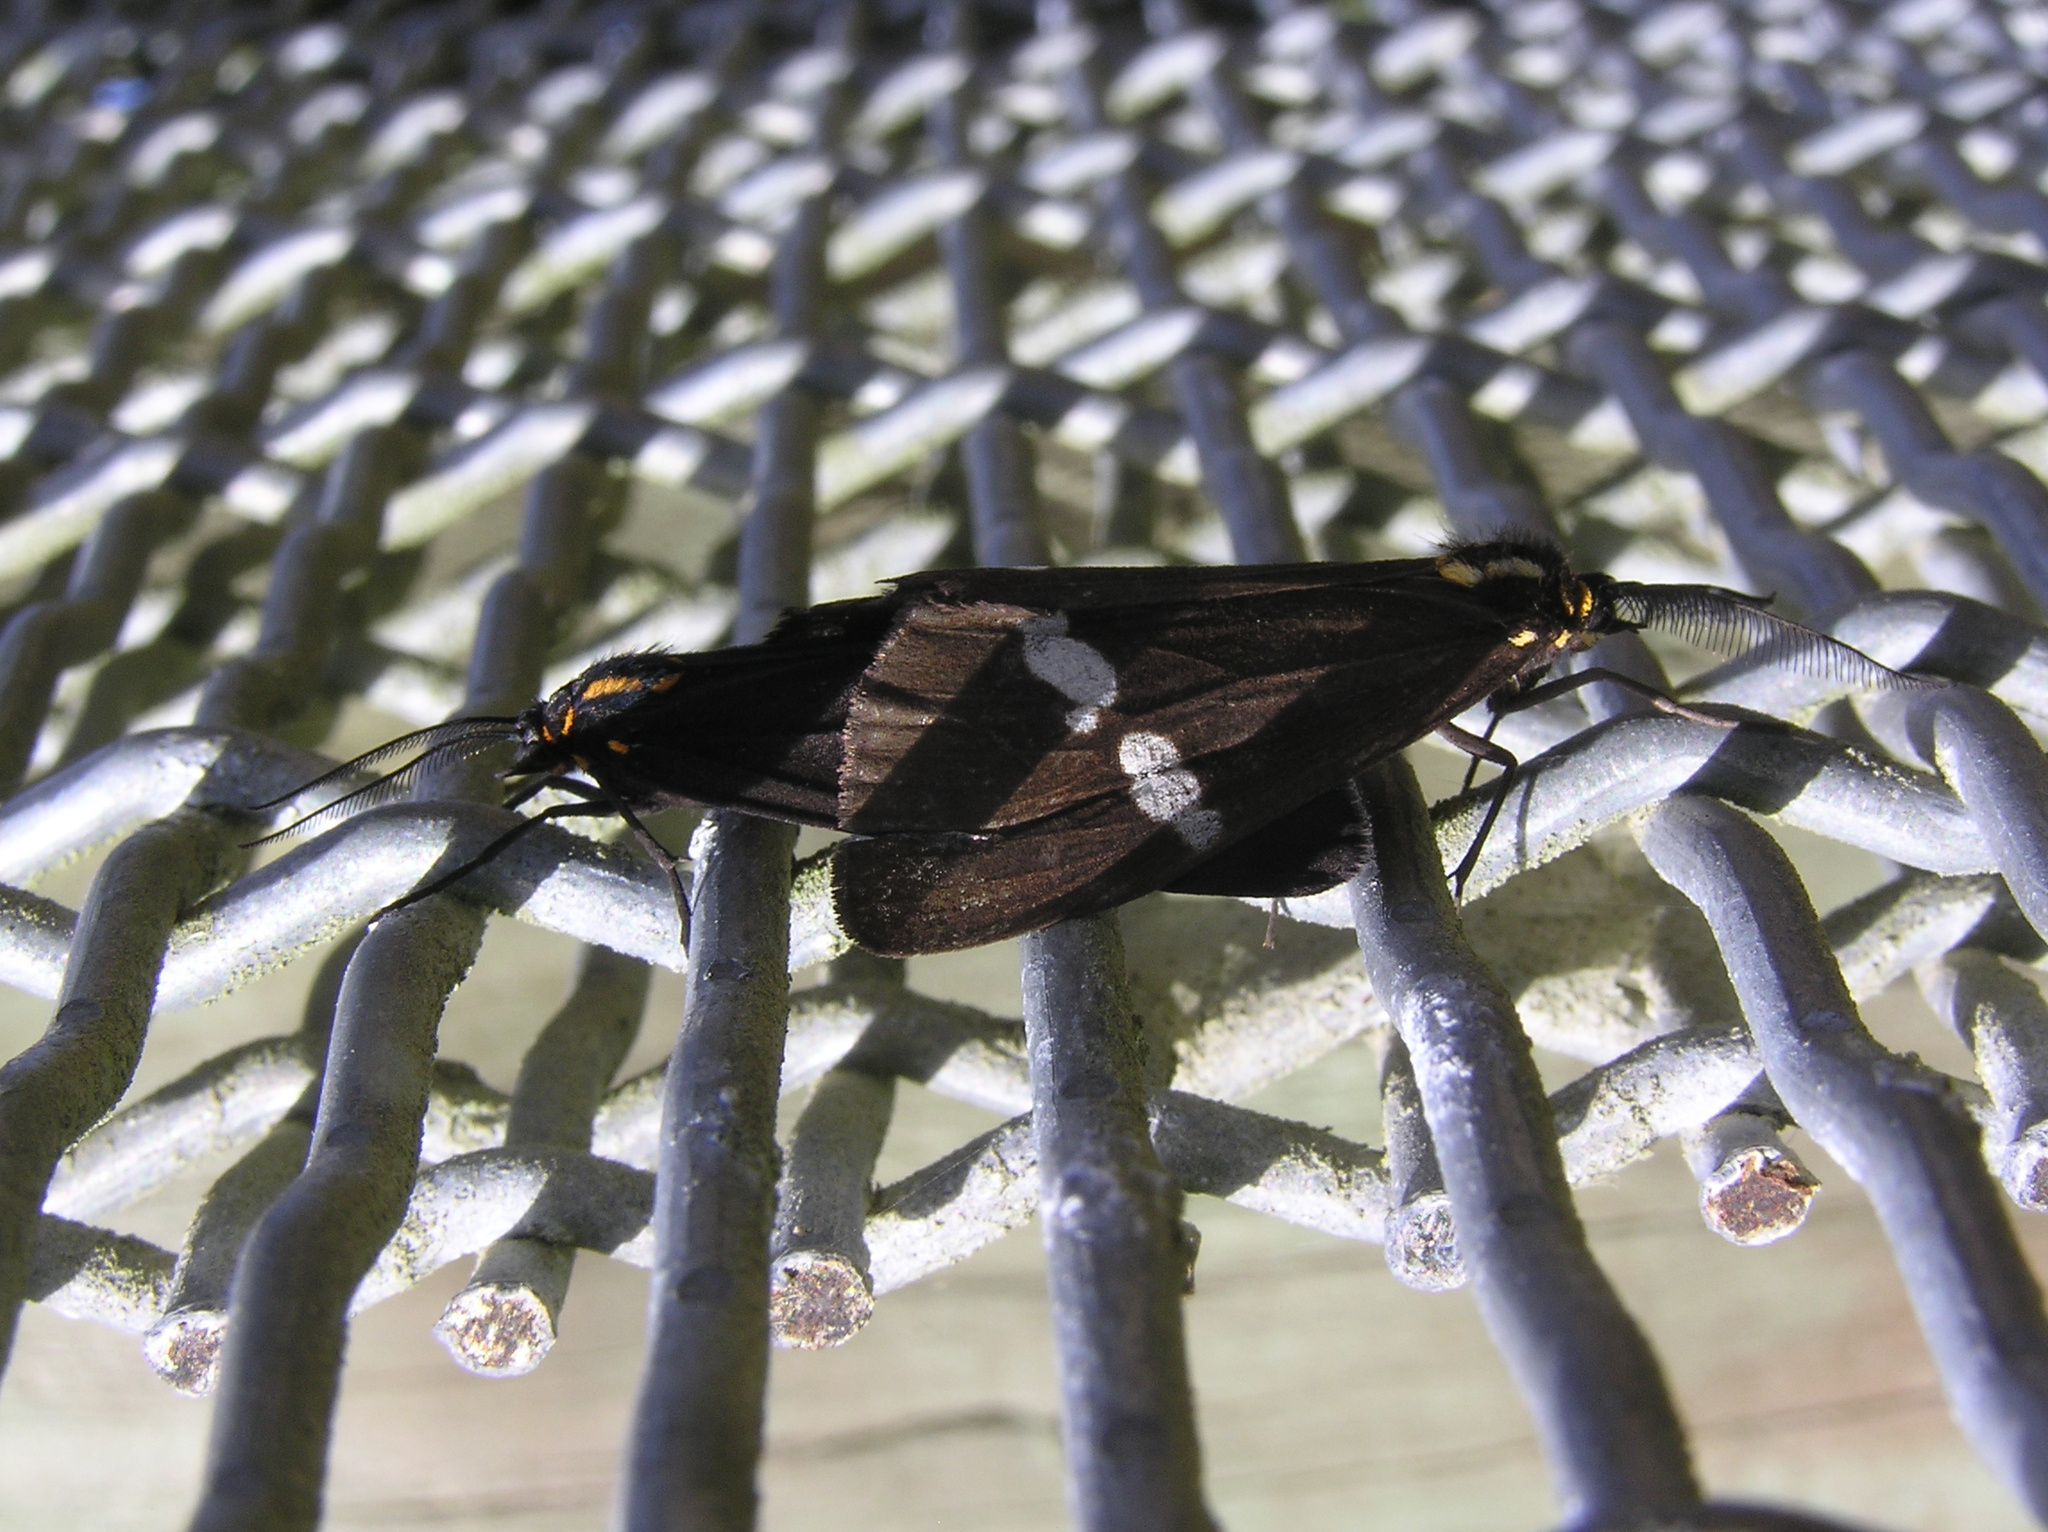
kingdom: Animalia
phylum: Arthropoda
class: Insecta
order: Lepidoptera
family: Erebidae
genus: Nyctemera
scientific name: Nyctemera annulatum
